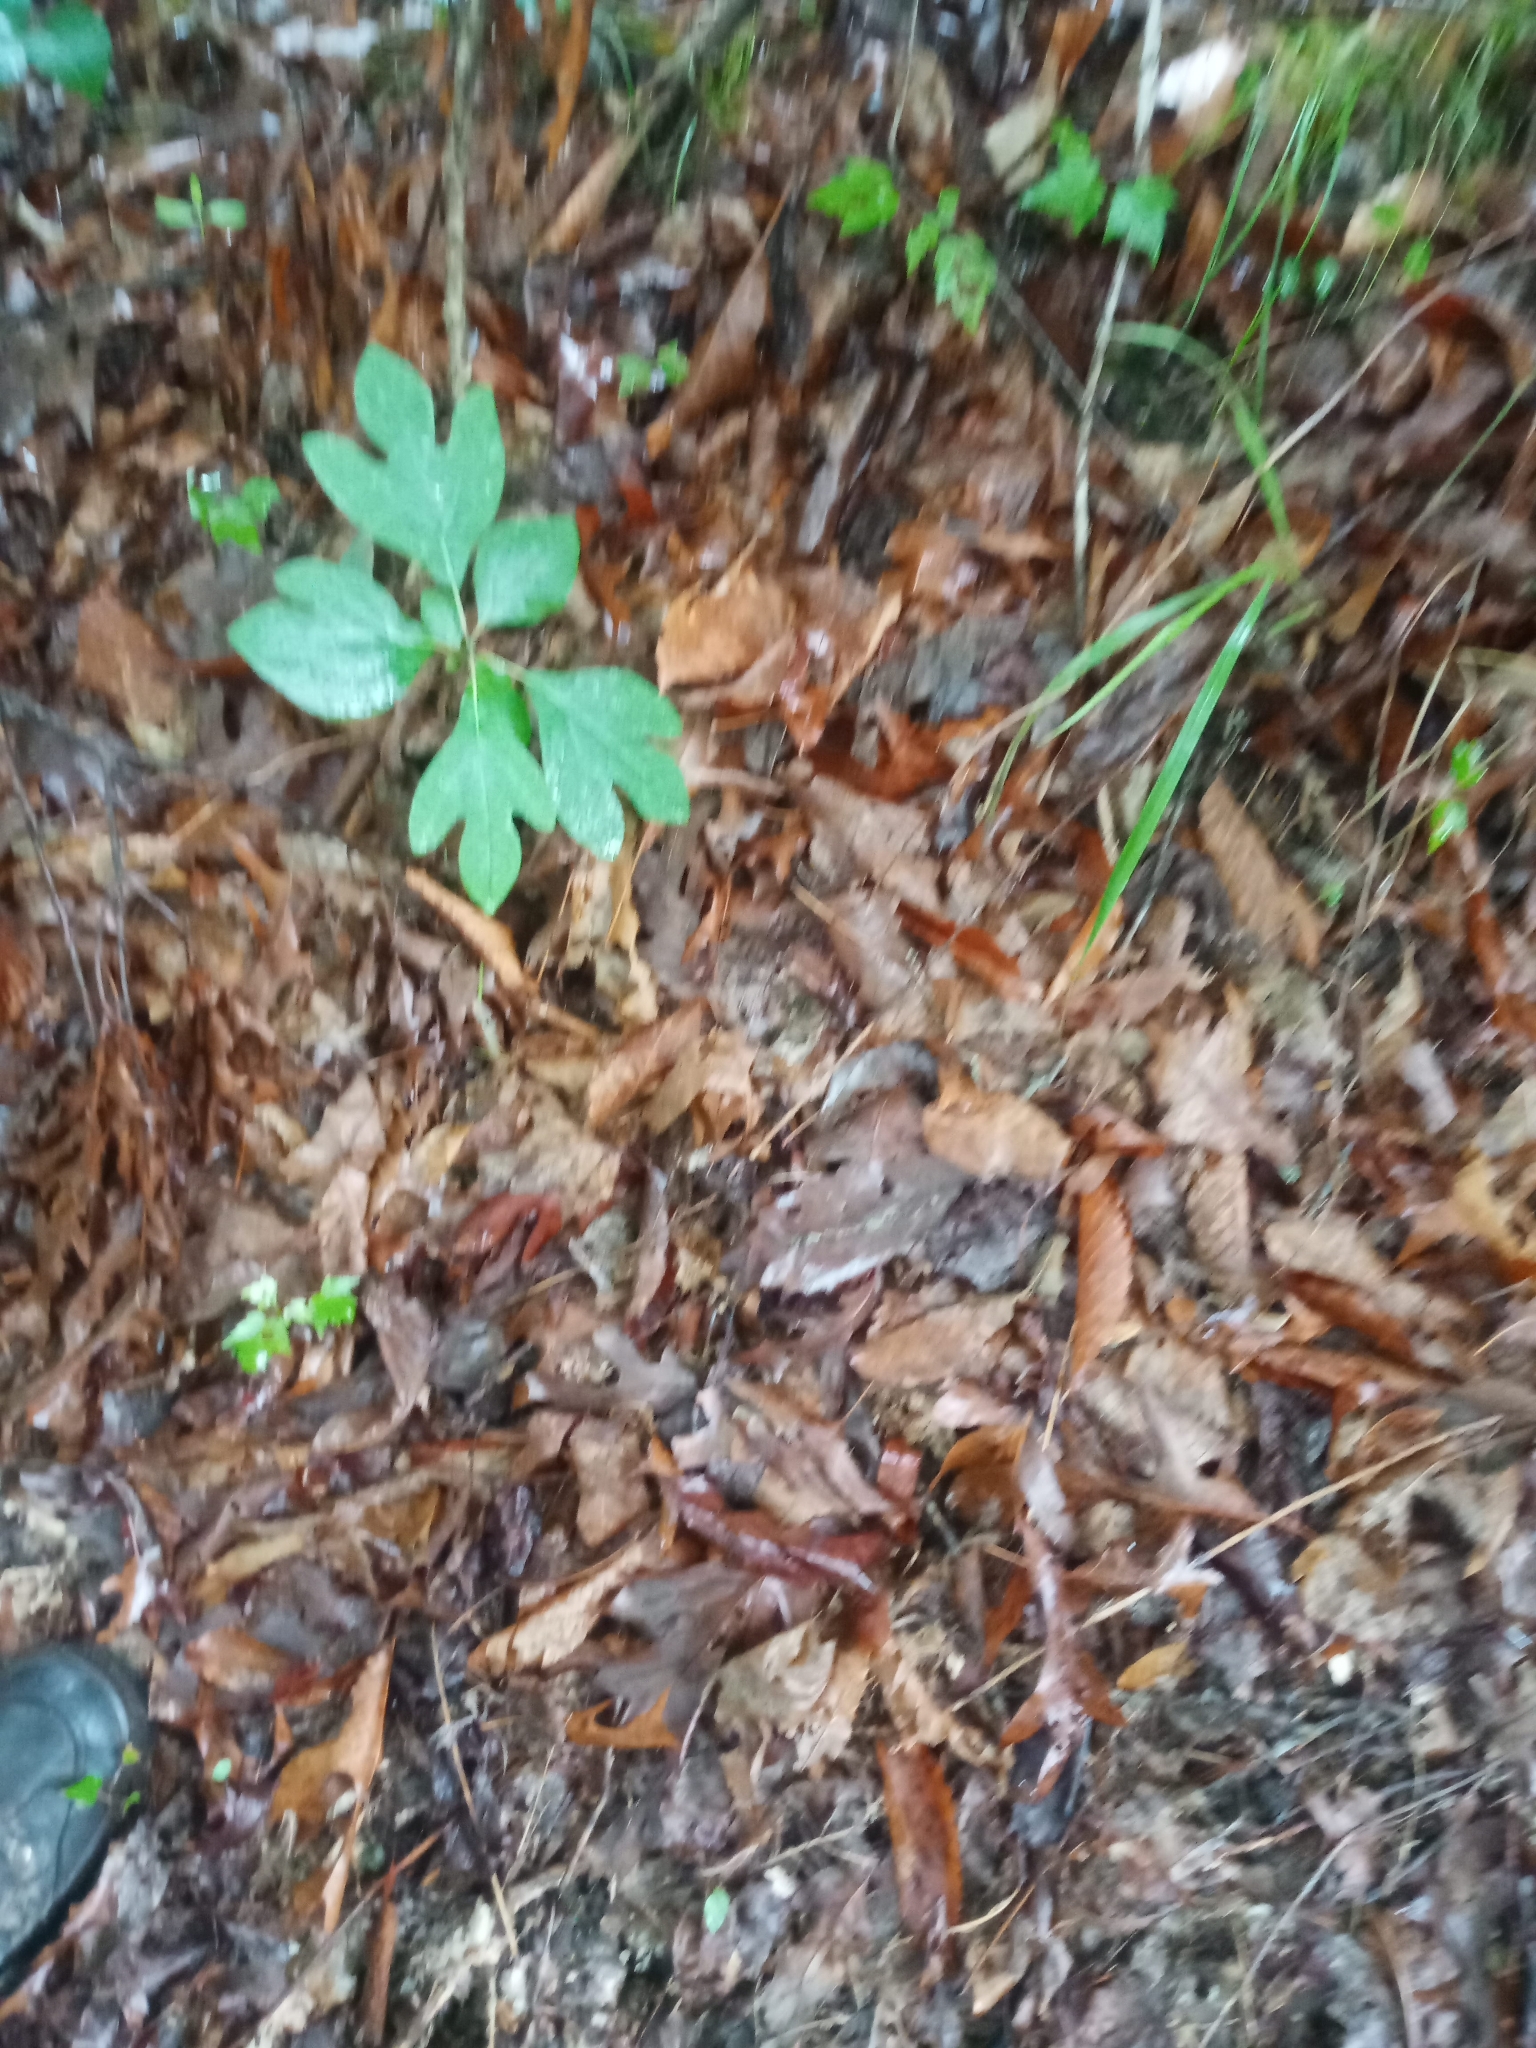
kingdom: Plantae
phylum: Tracheophyta
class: Magnoliopsida
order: Laurales
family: Lauraceae
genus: Sassafras
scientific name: Sassafras albidum
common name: Sassafras
